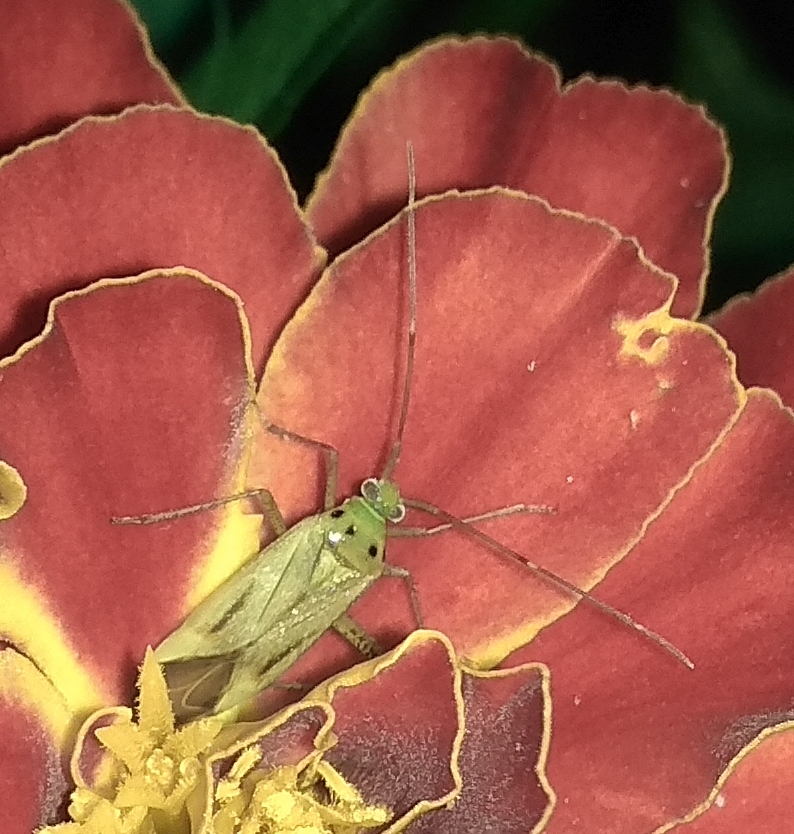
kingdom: Animalia
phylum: Arthropoda
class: Insecta
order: Hemiptera
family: Miridae
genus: Adelphocoris
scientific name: Adelphocoris quadripunctatus
